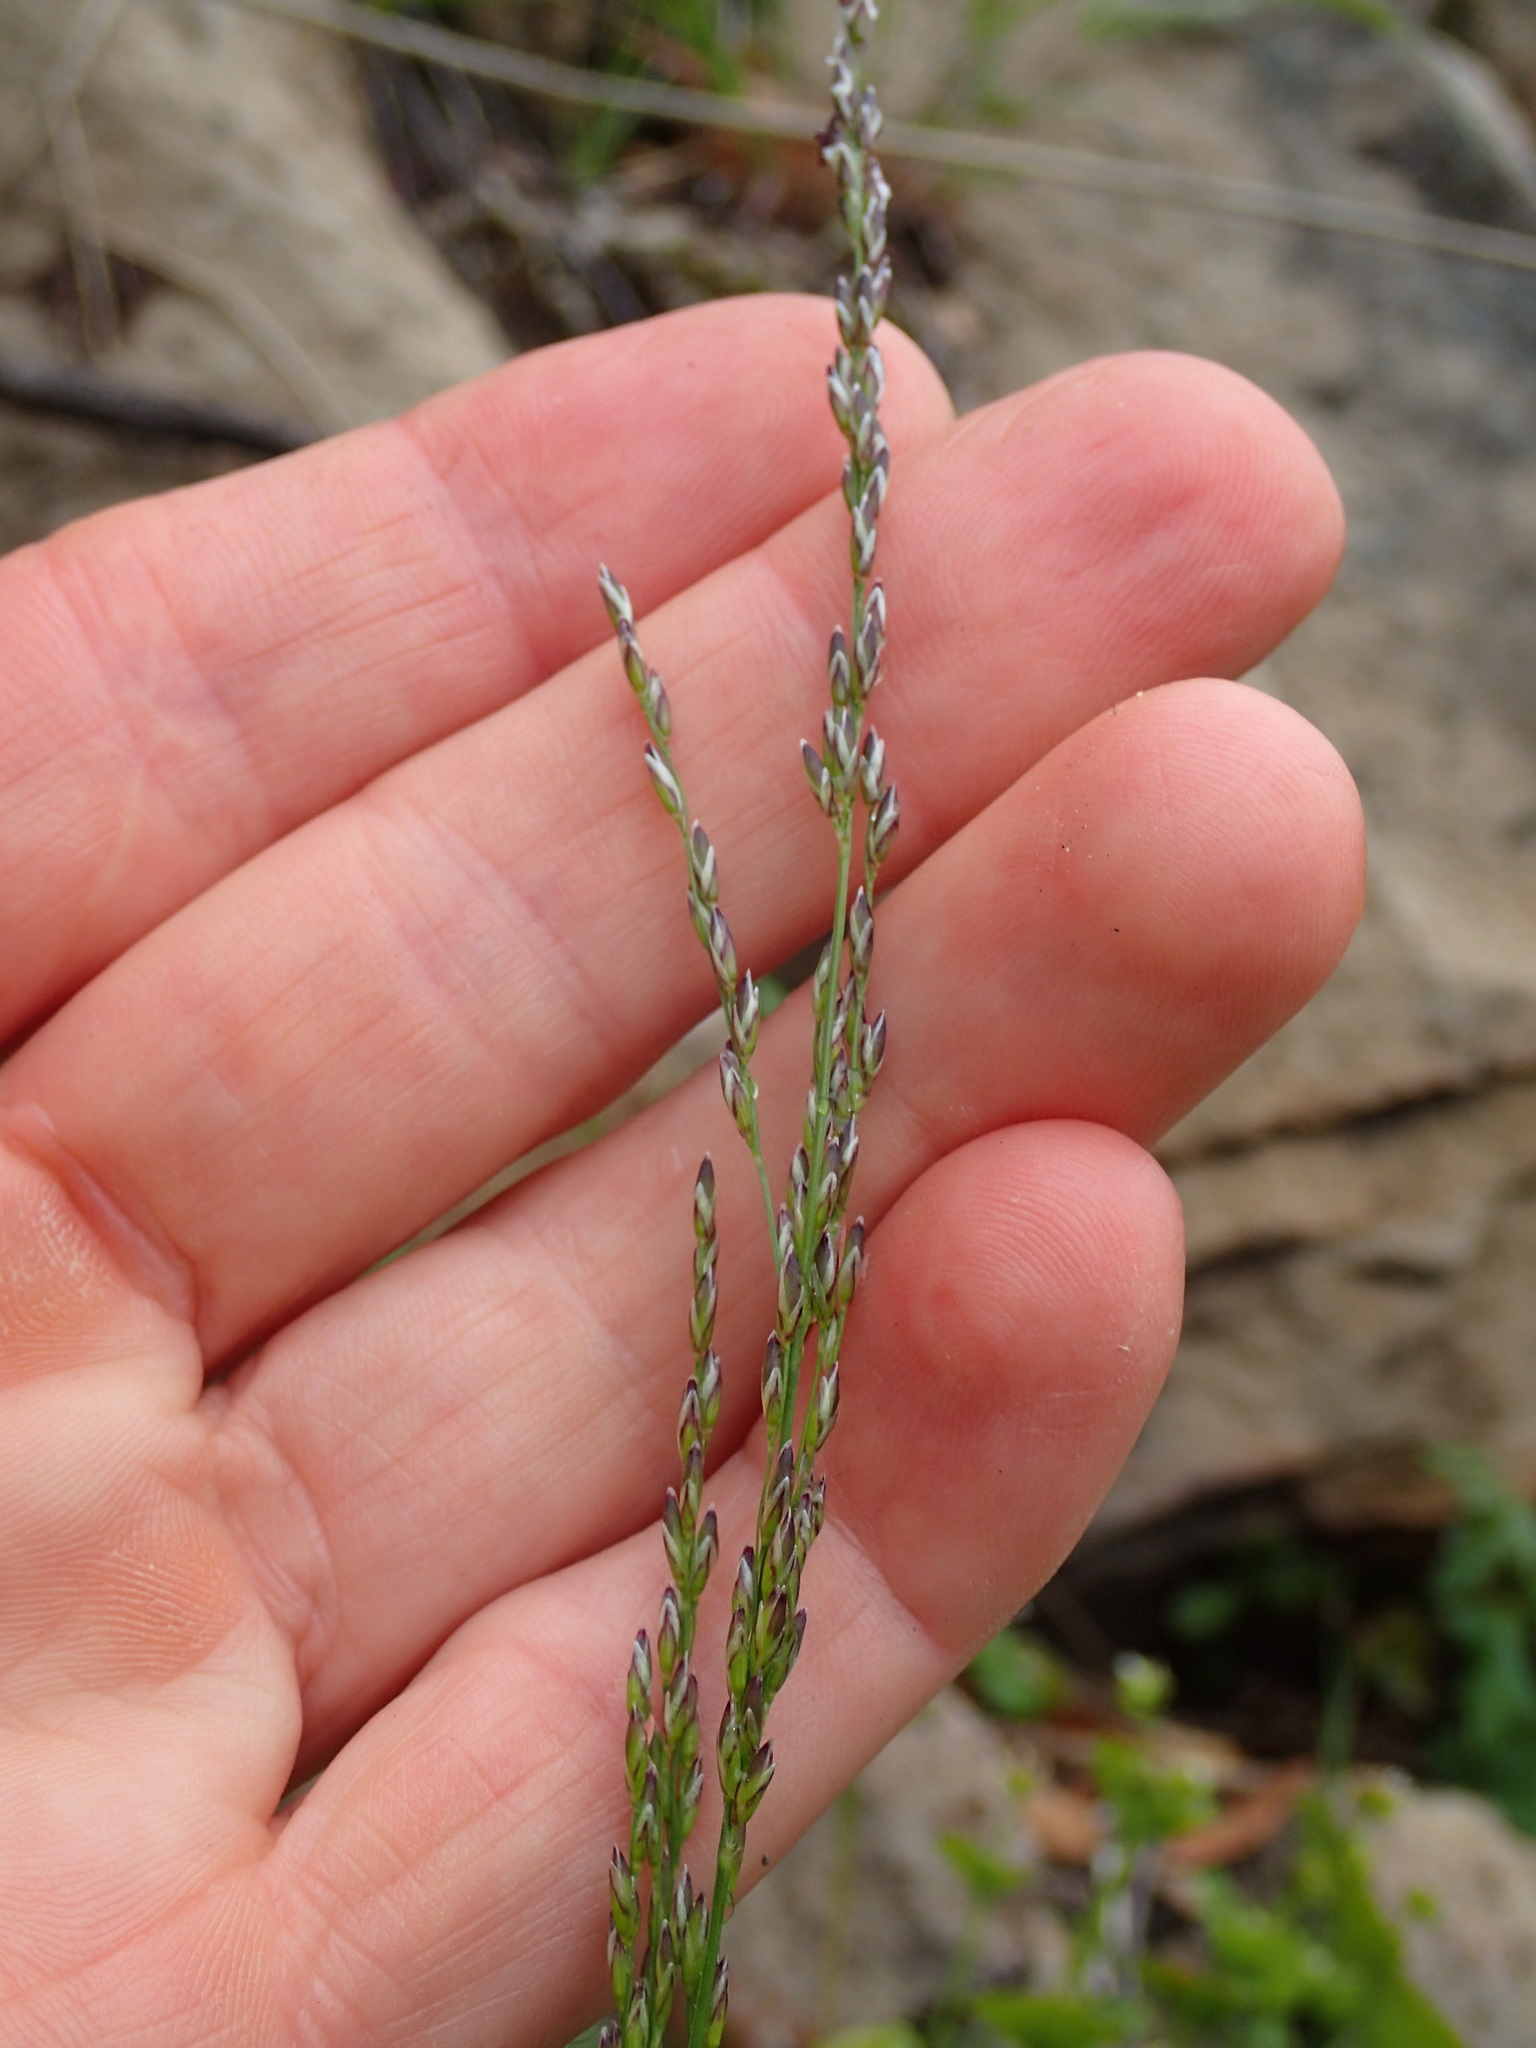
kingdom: Plantae
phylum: Tracheophyta
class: Liliopsida
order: Poales
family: Poaceae
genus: Melica
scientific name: Melica imperfecta
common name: California melic
